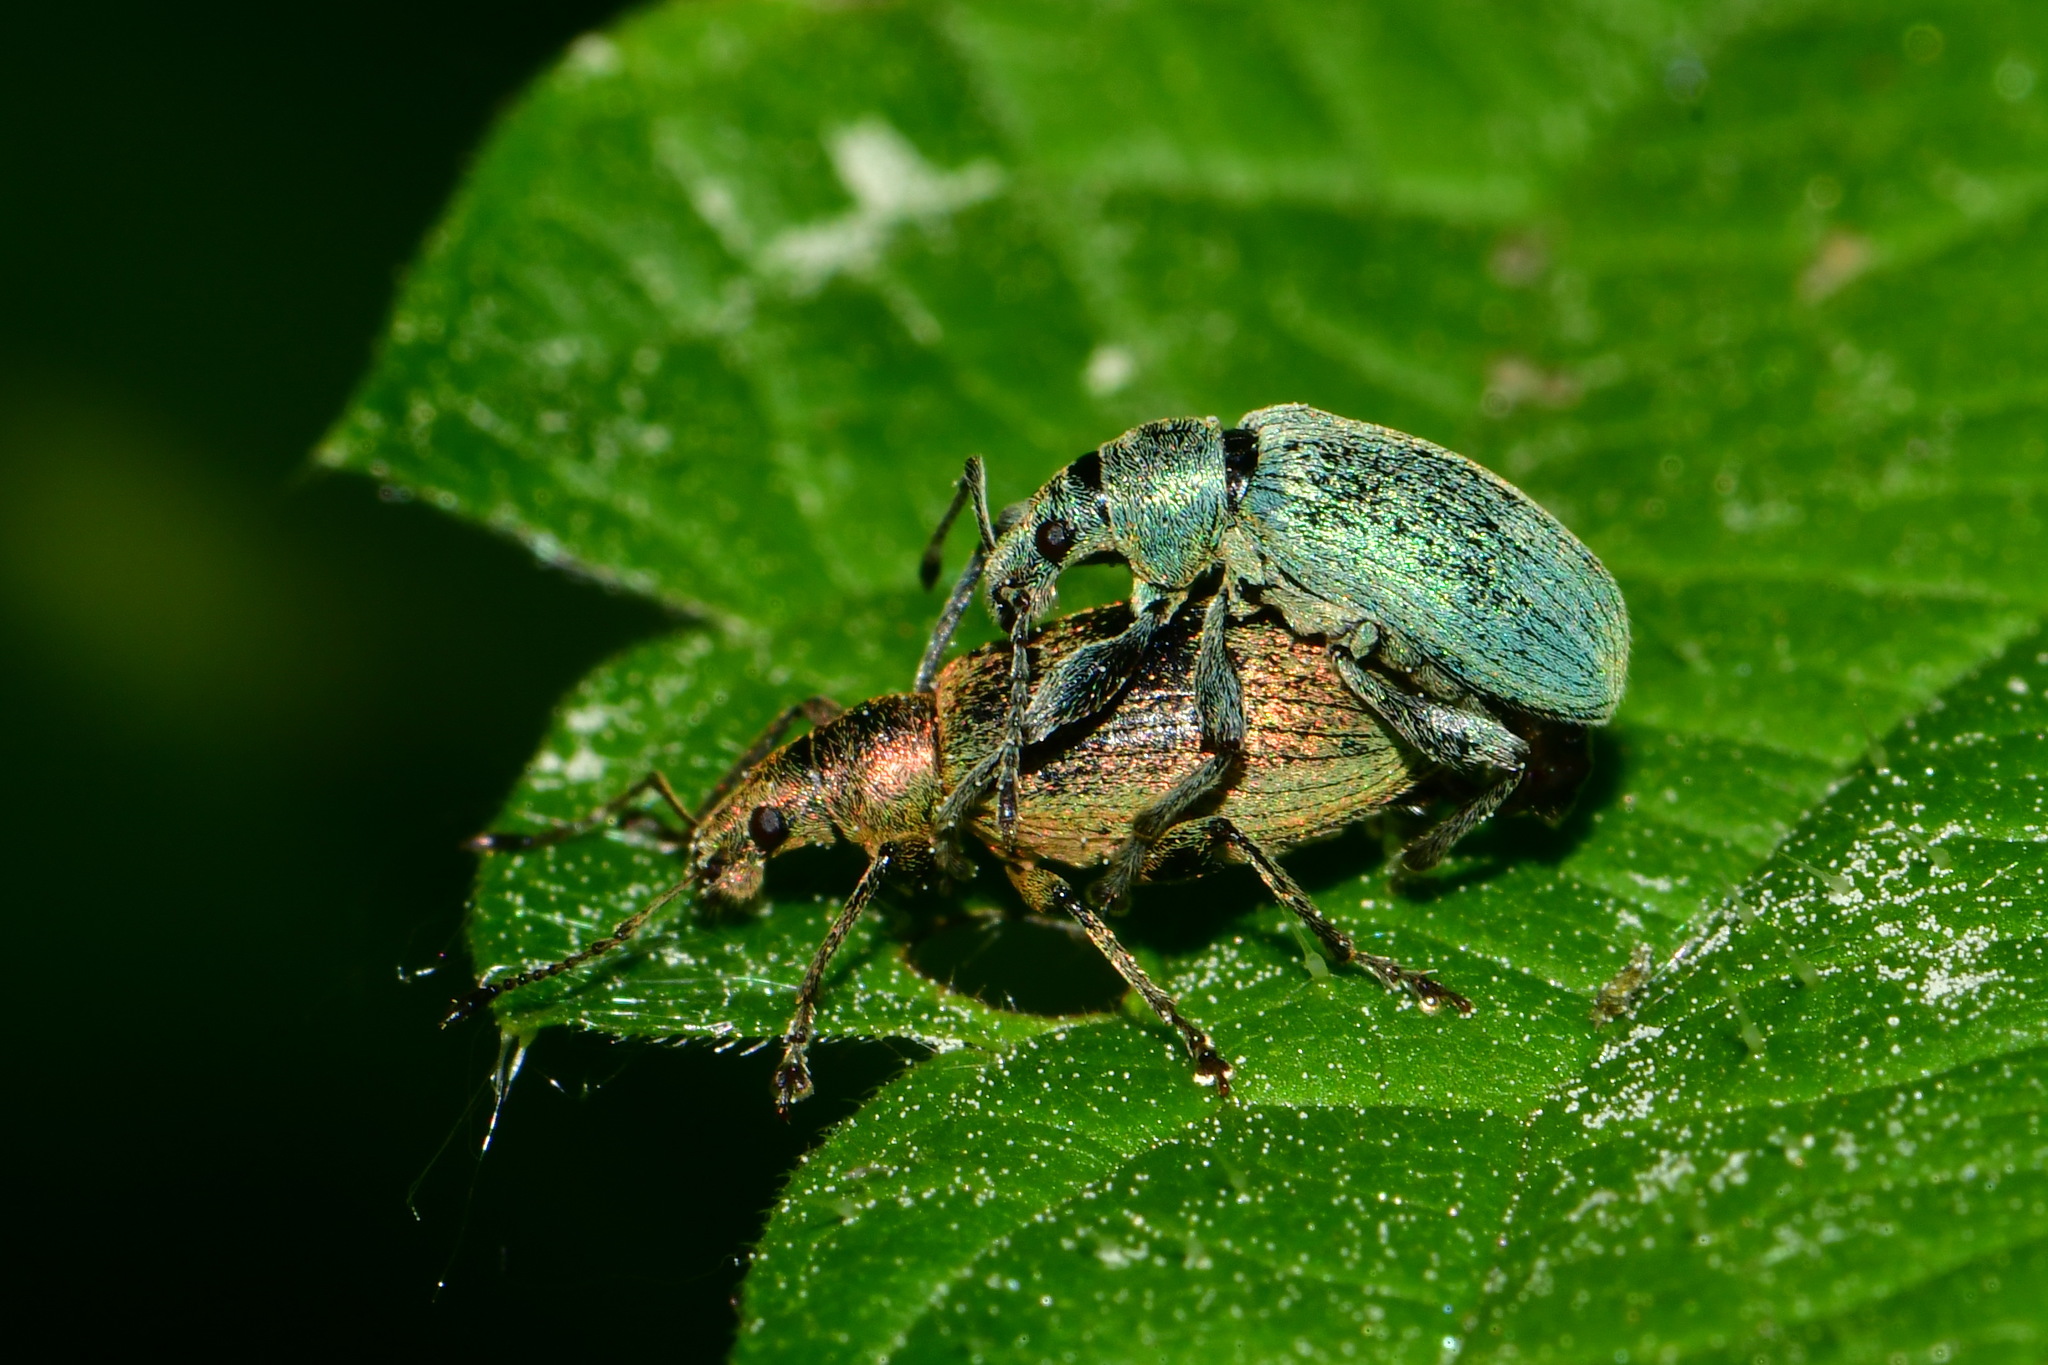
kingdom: Animalia
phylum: Arthropoda
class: Insecta
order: Coleoptera
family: Curculionidae
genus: Phyllobius
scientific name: Phyllobius pomaceus
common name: Green nettle weevil
